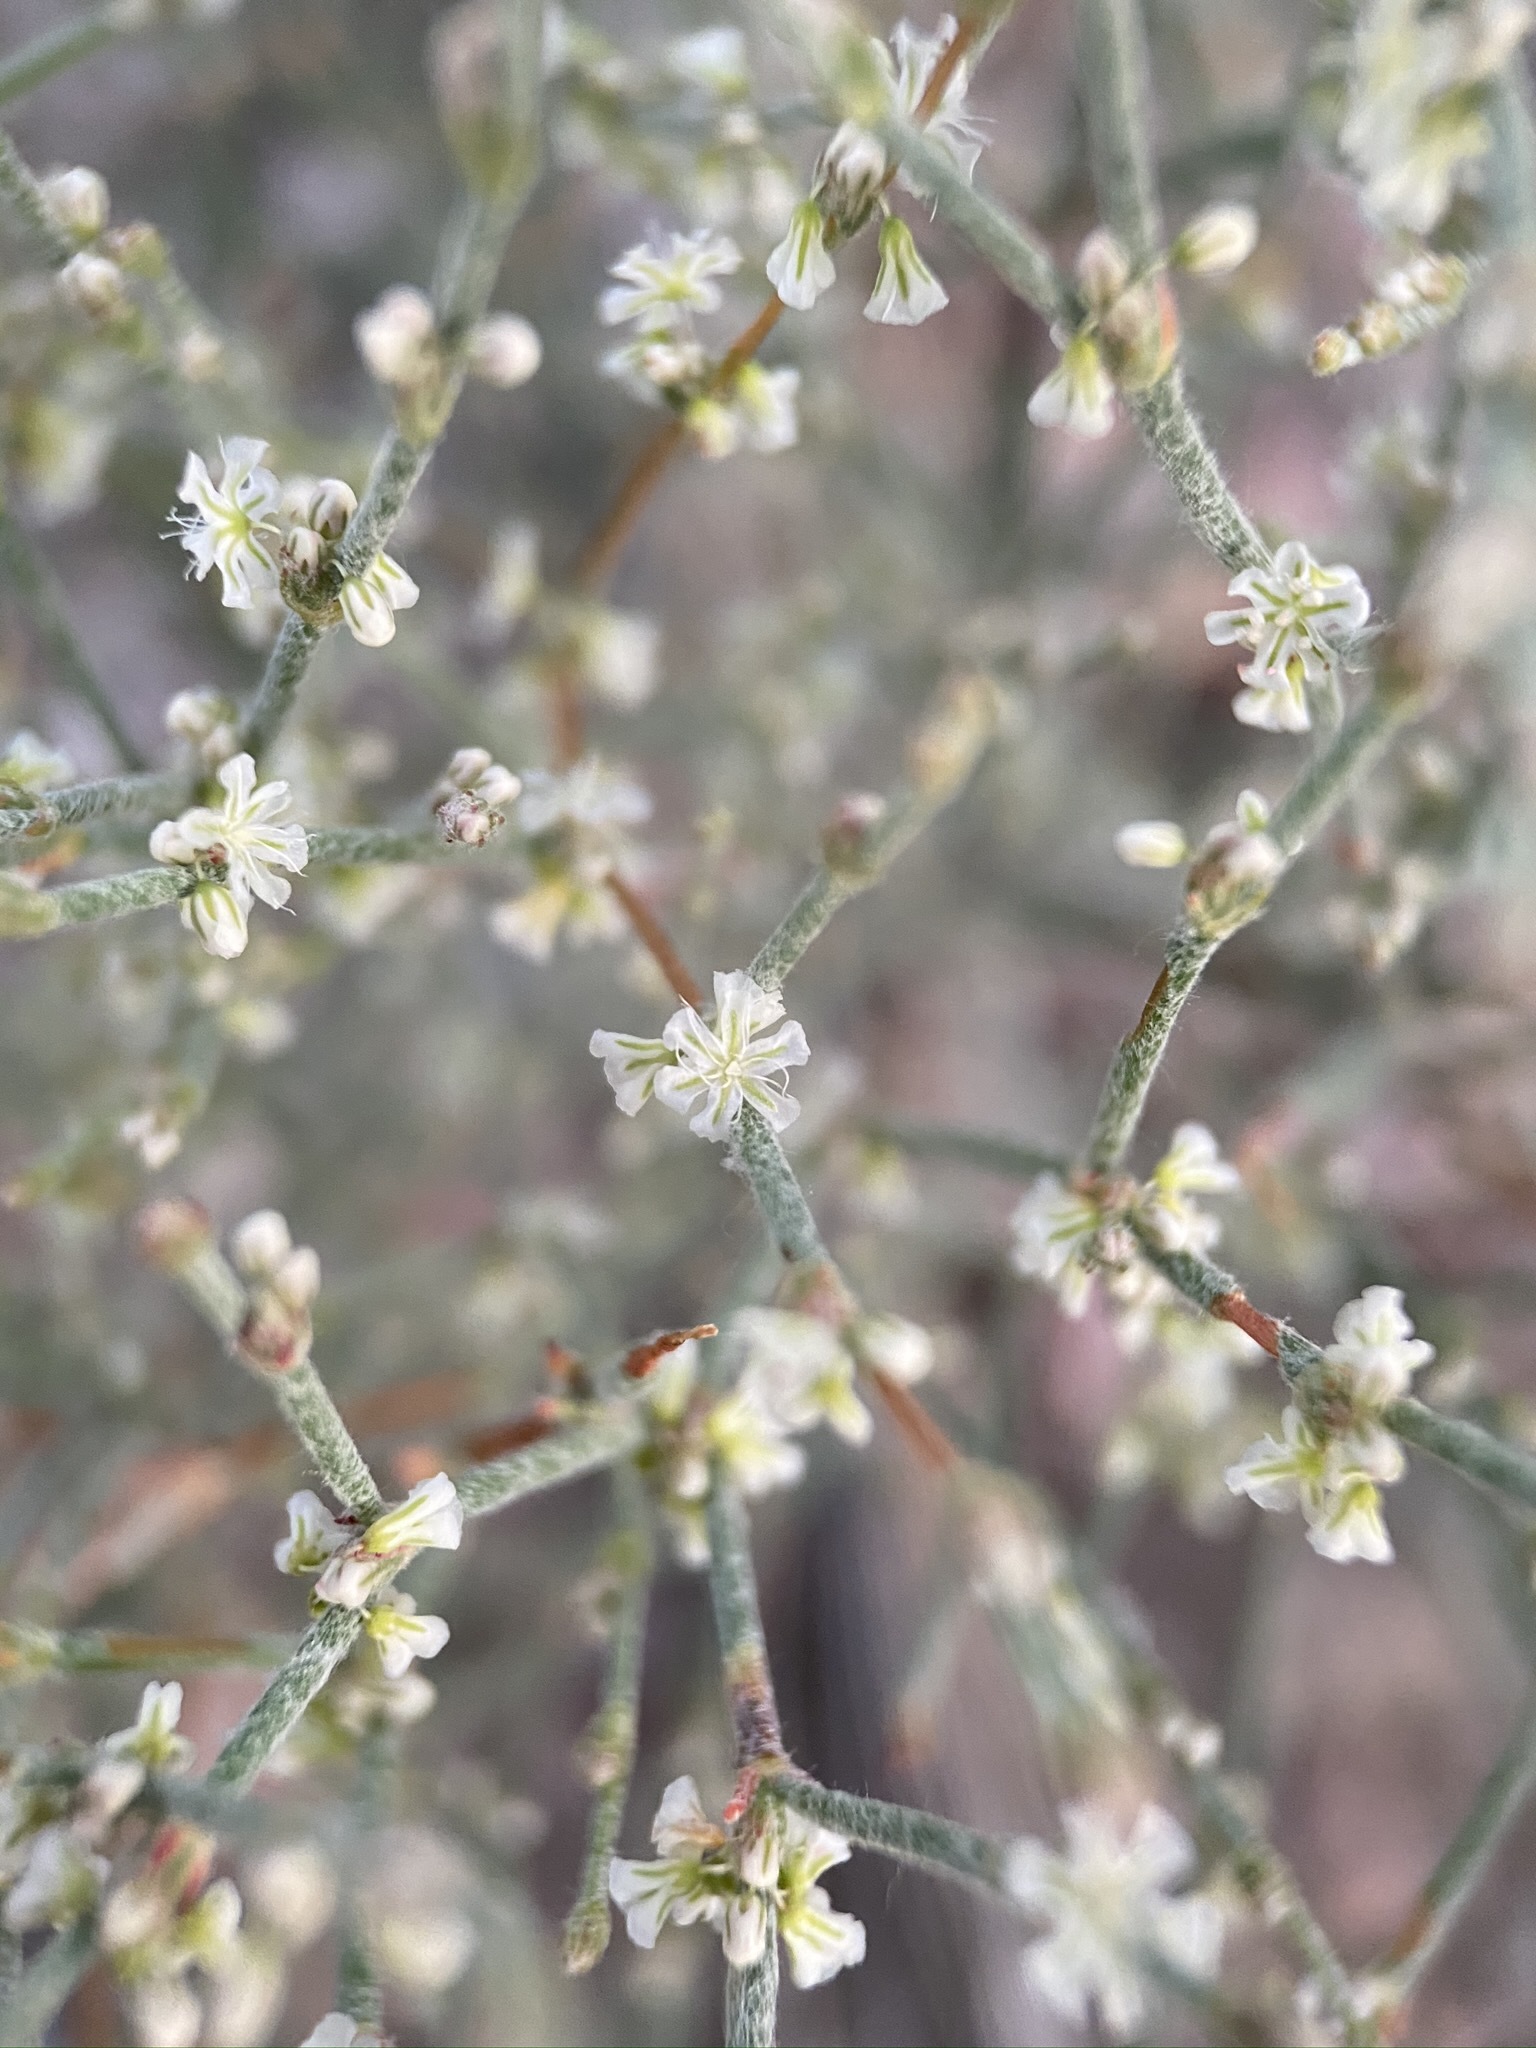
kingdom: Plantae
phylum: Tracheophyta
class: Magnoliopsida
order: Caryophyllales
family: Polygonaceae
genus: Eriogonum
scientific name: Eriogonum palmerianum
